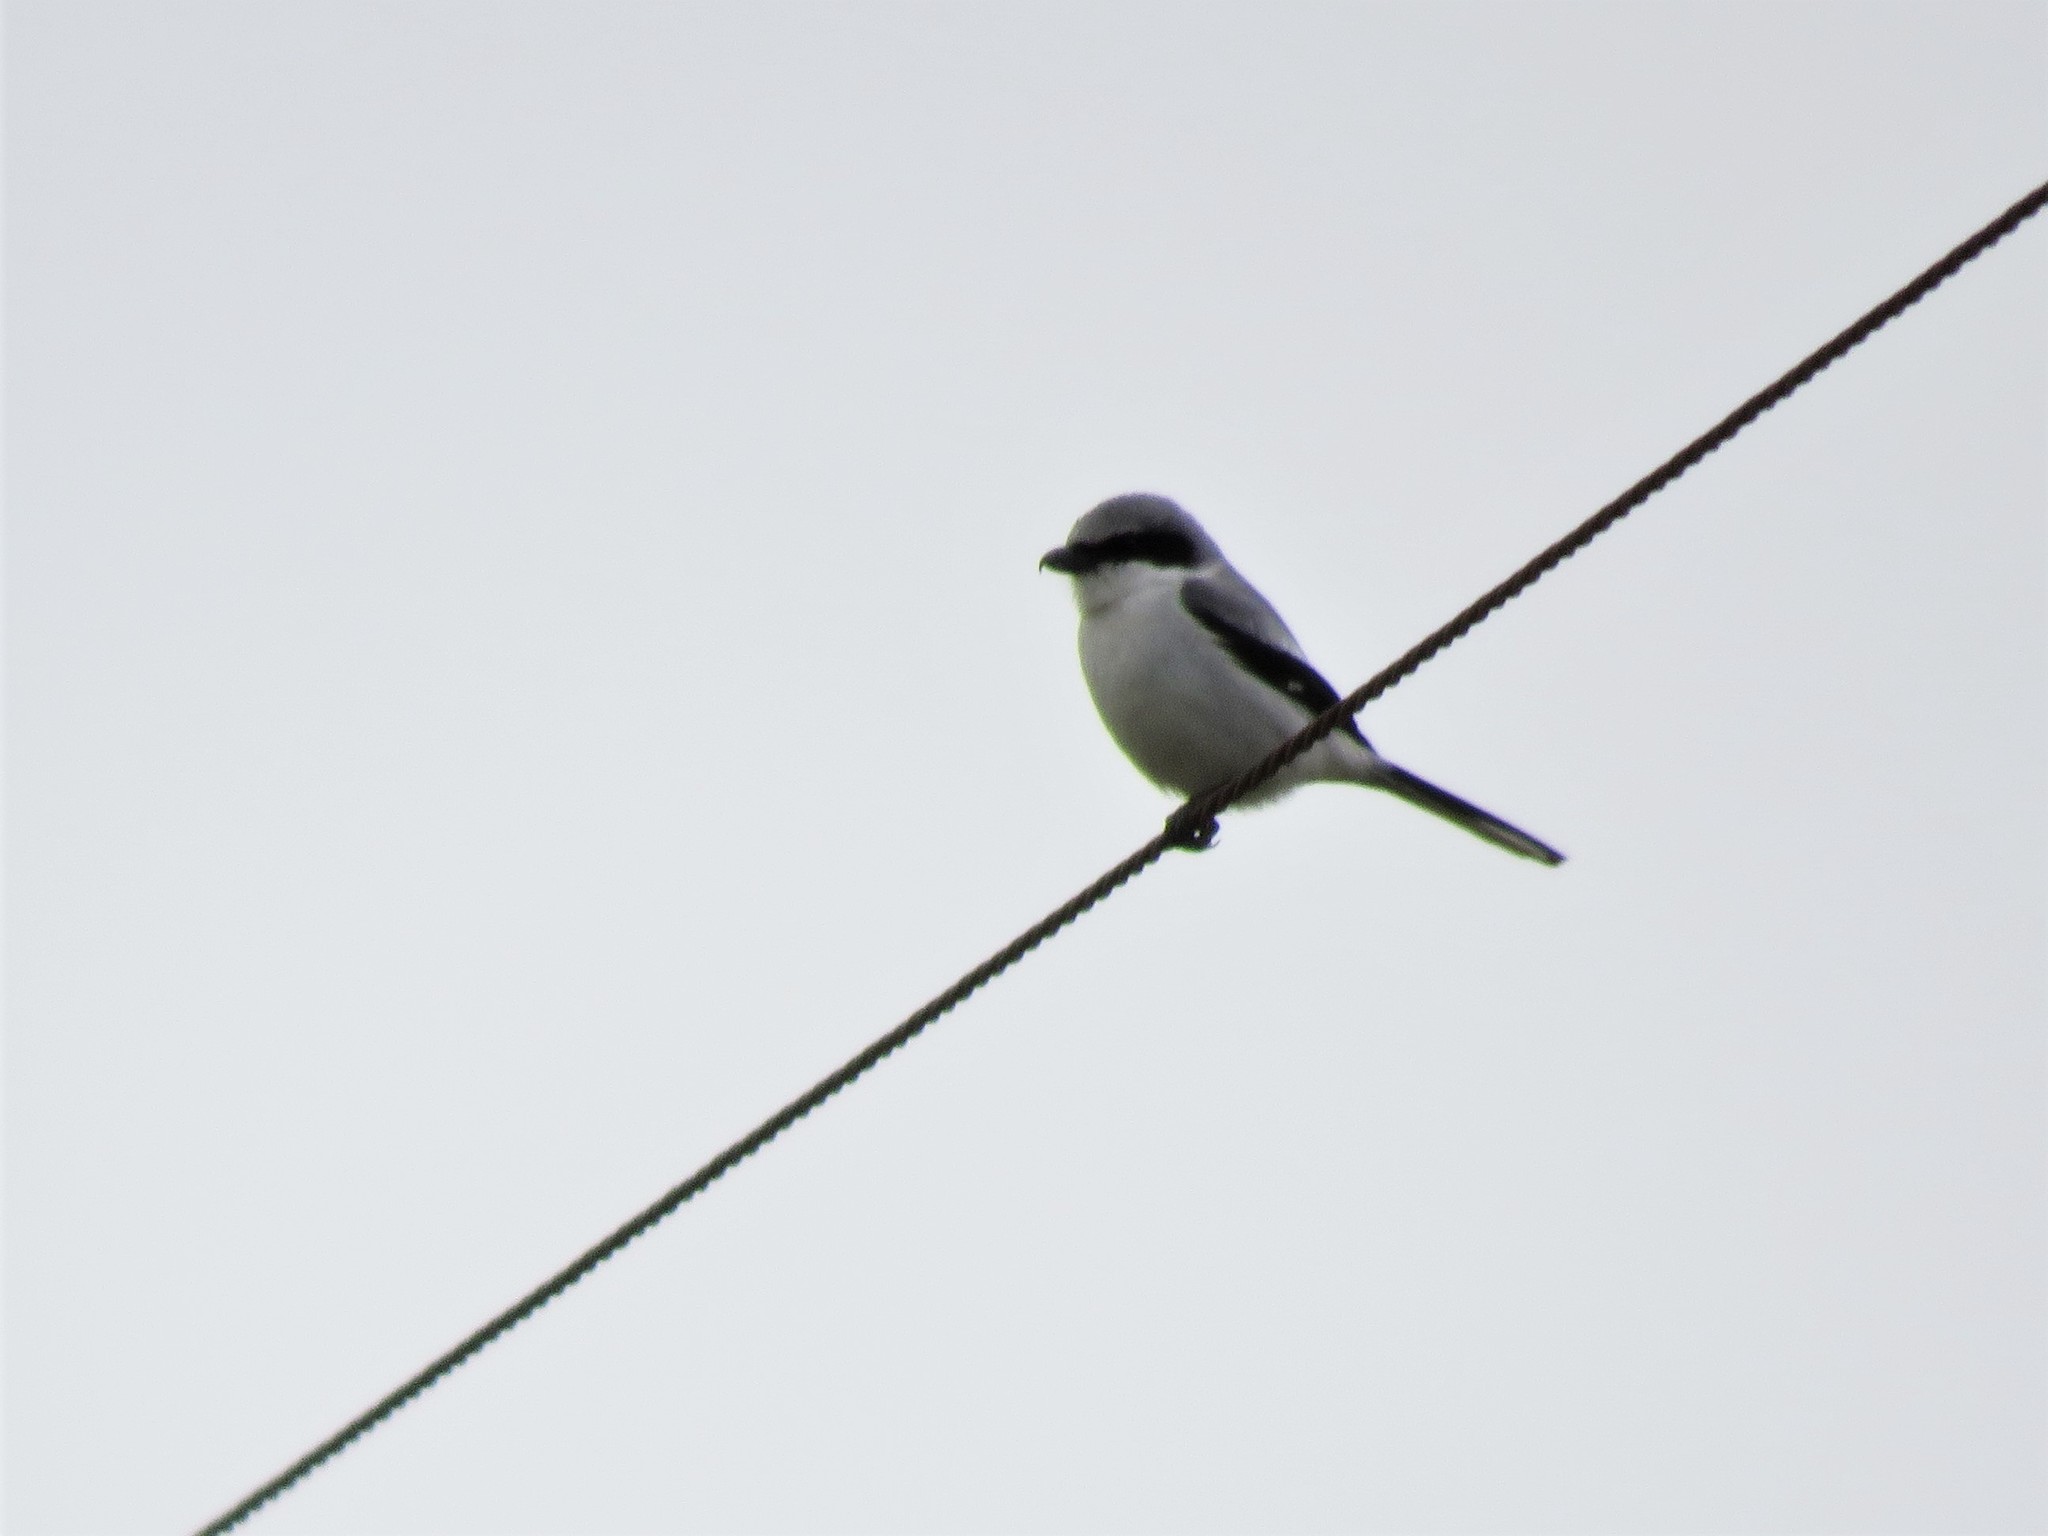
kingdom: Animalia
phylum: Chordata
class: Aves
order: Passeriformes
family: Laniidae
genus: Lanius
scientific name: Lanius ludovicianus
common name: Loggerhead shrike
